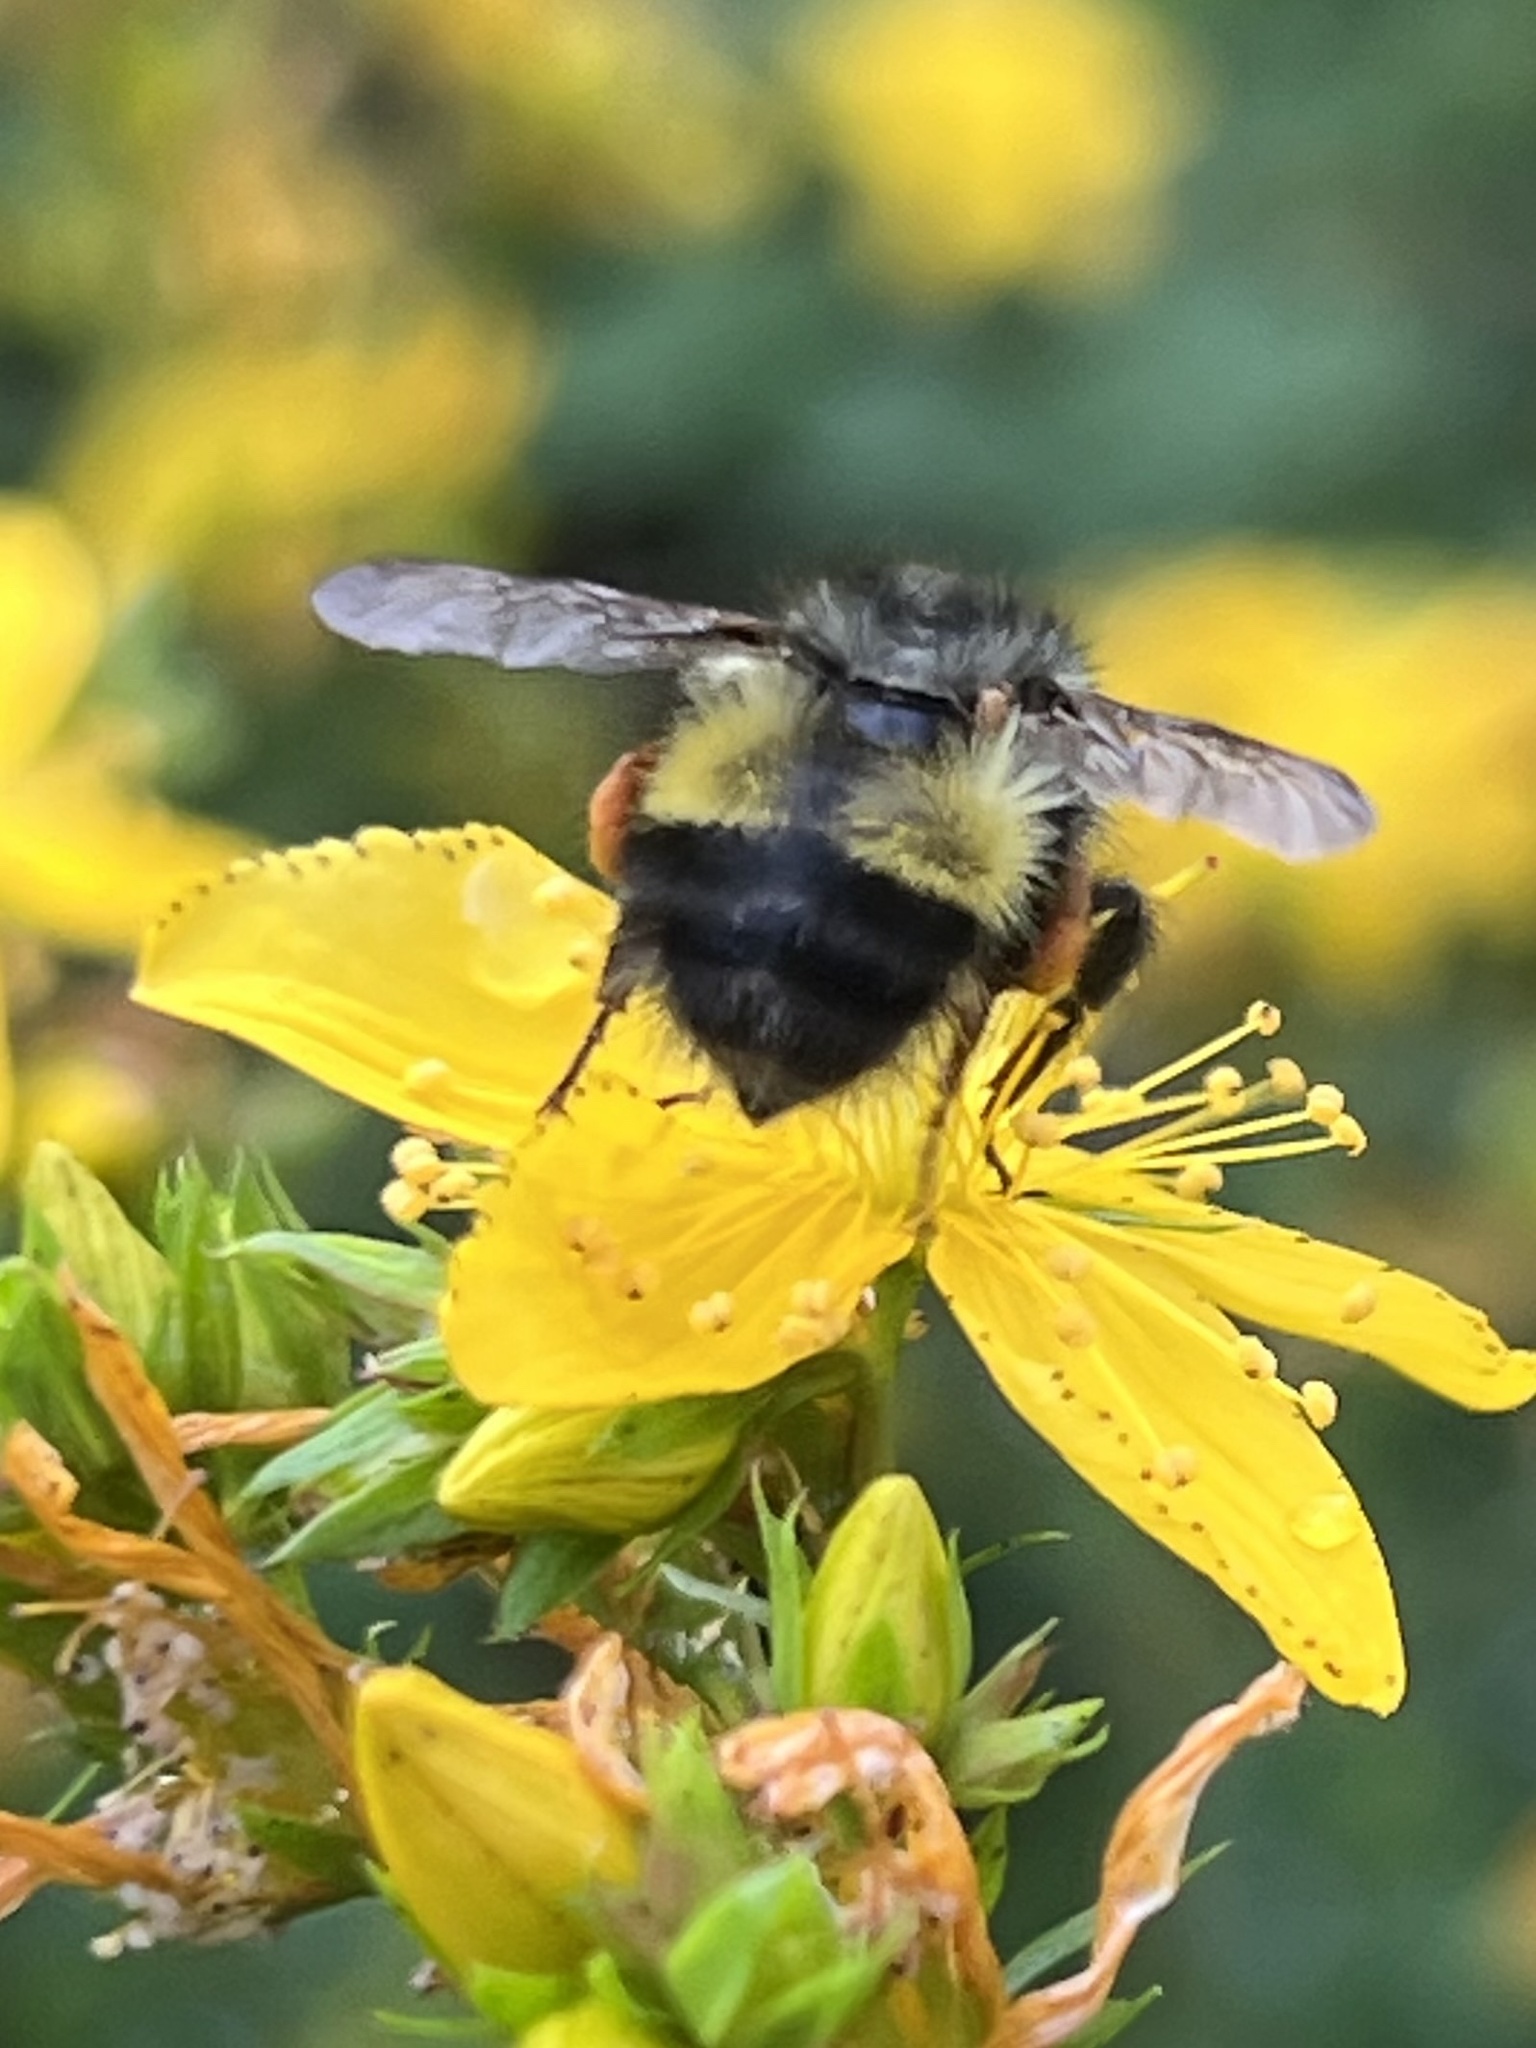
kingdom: Animalia
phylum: Arthropoda
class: Insecta
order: Hymenoptera
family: Apidae
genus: Bombus
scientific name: Bombus flavifrons
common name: Yellow head bumble bee
